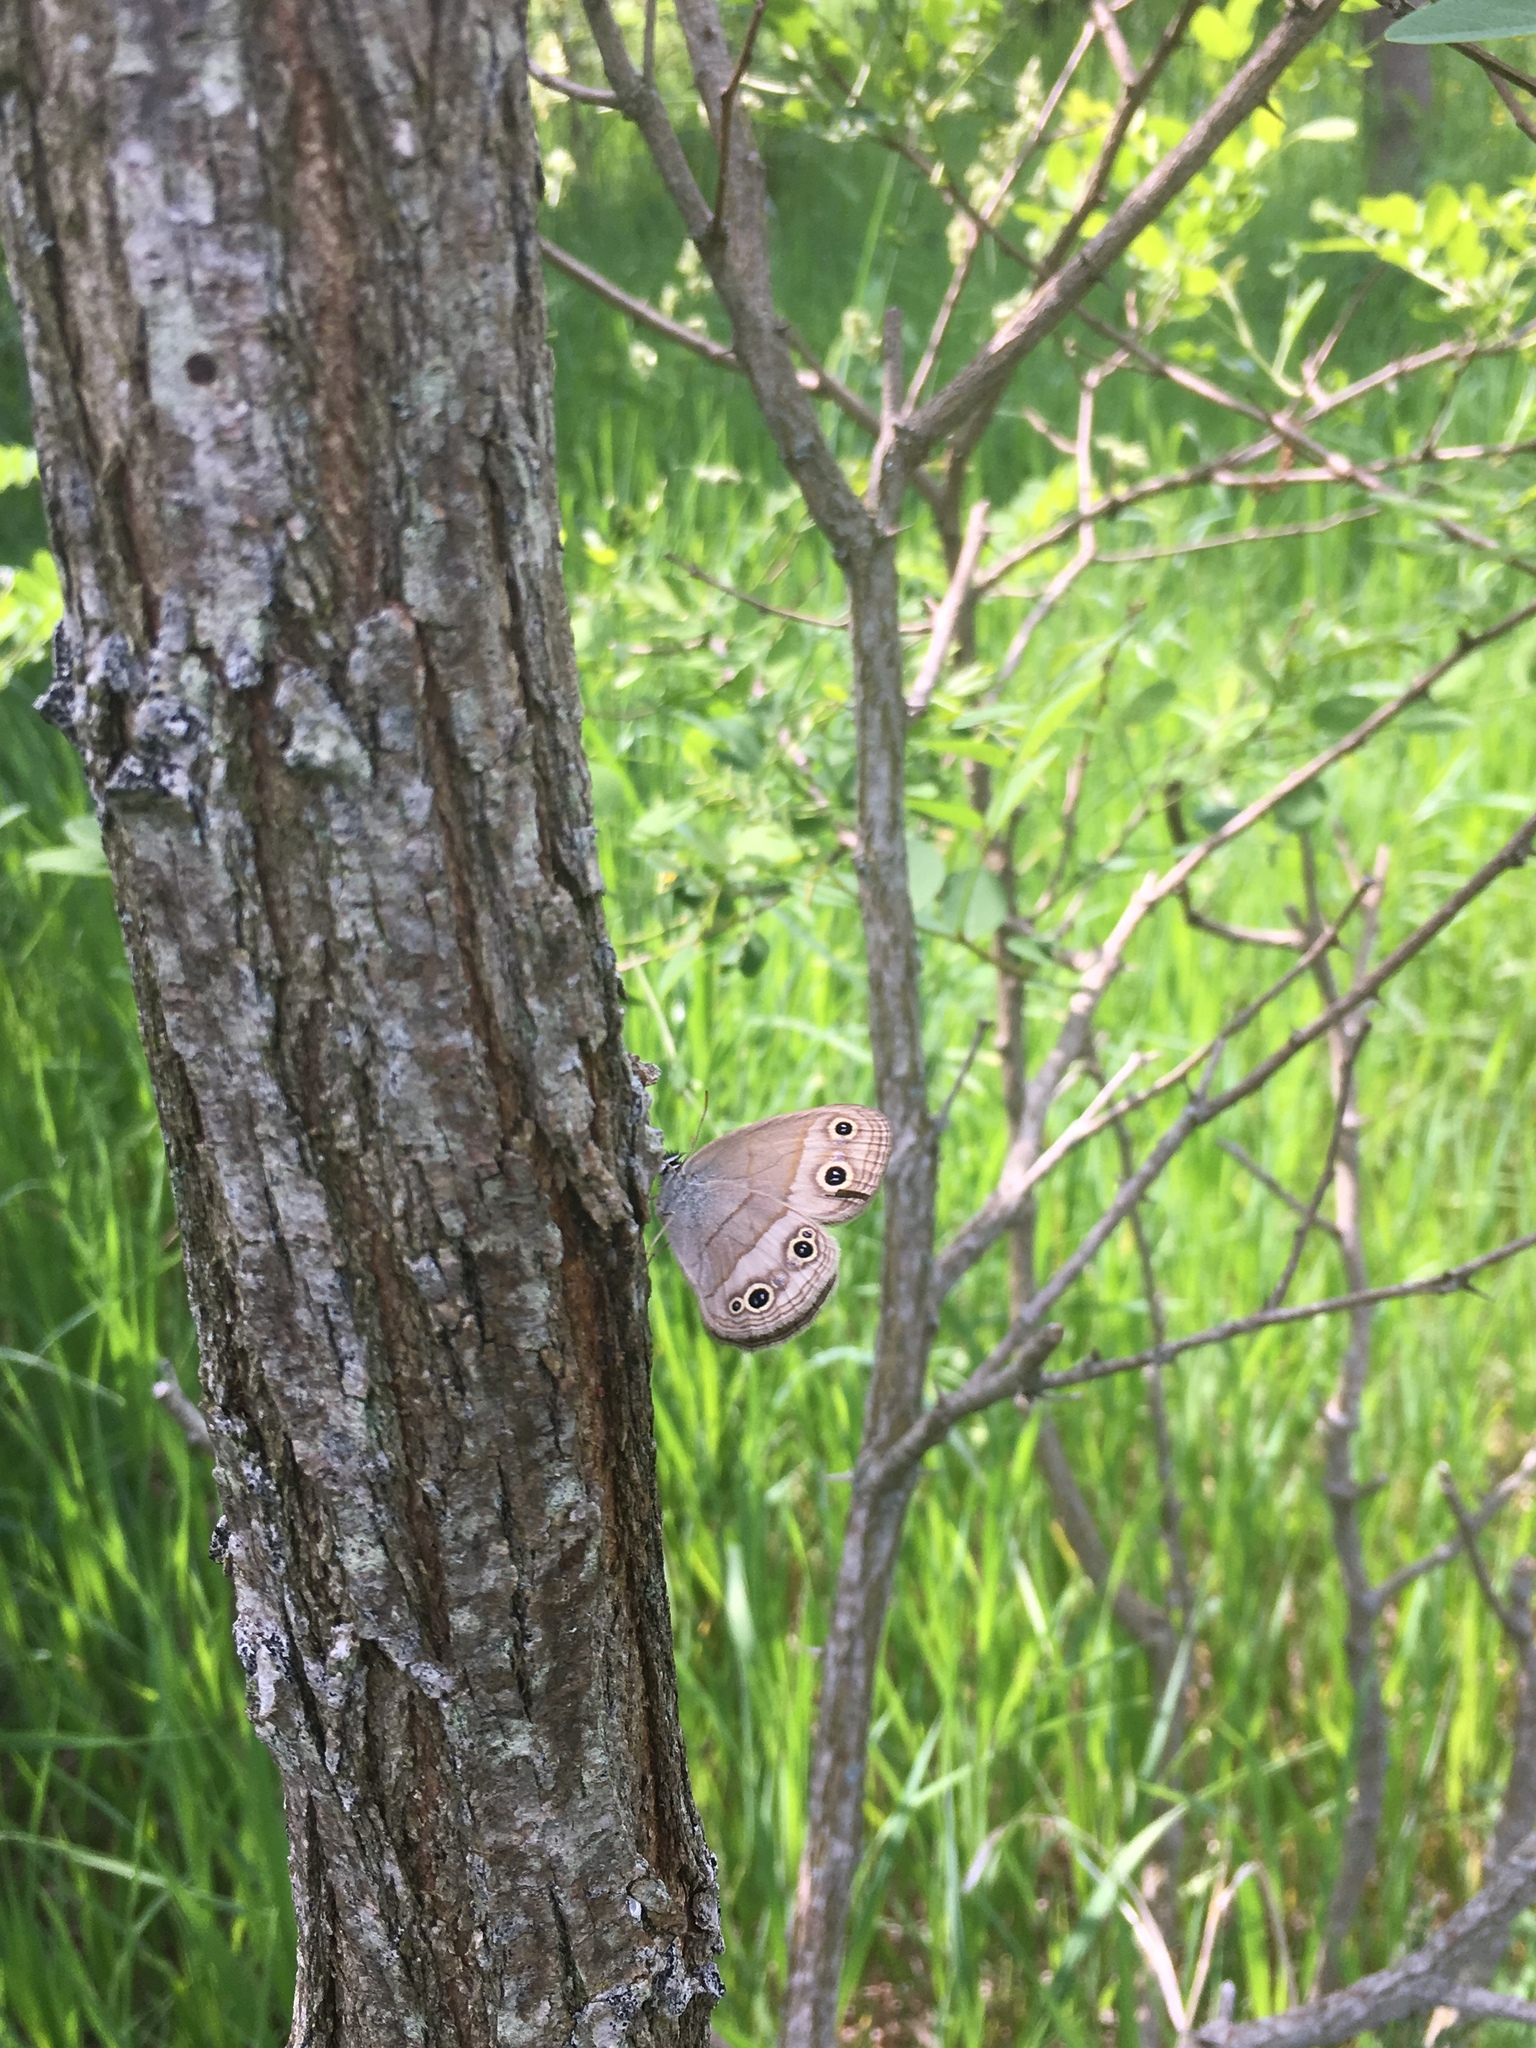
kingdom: Animalia
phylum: Arthropoda
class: Insecta
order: Lepidoptera
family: Nymphalidae
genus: Euptychia
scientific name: Euptychia cymela
